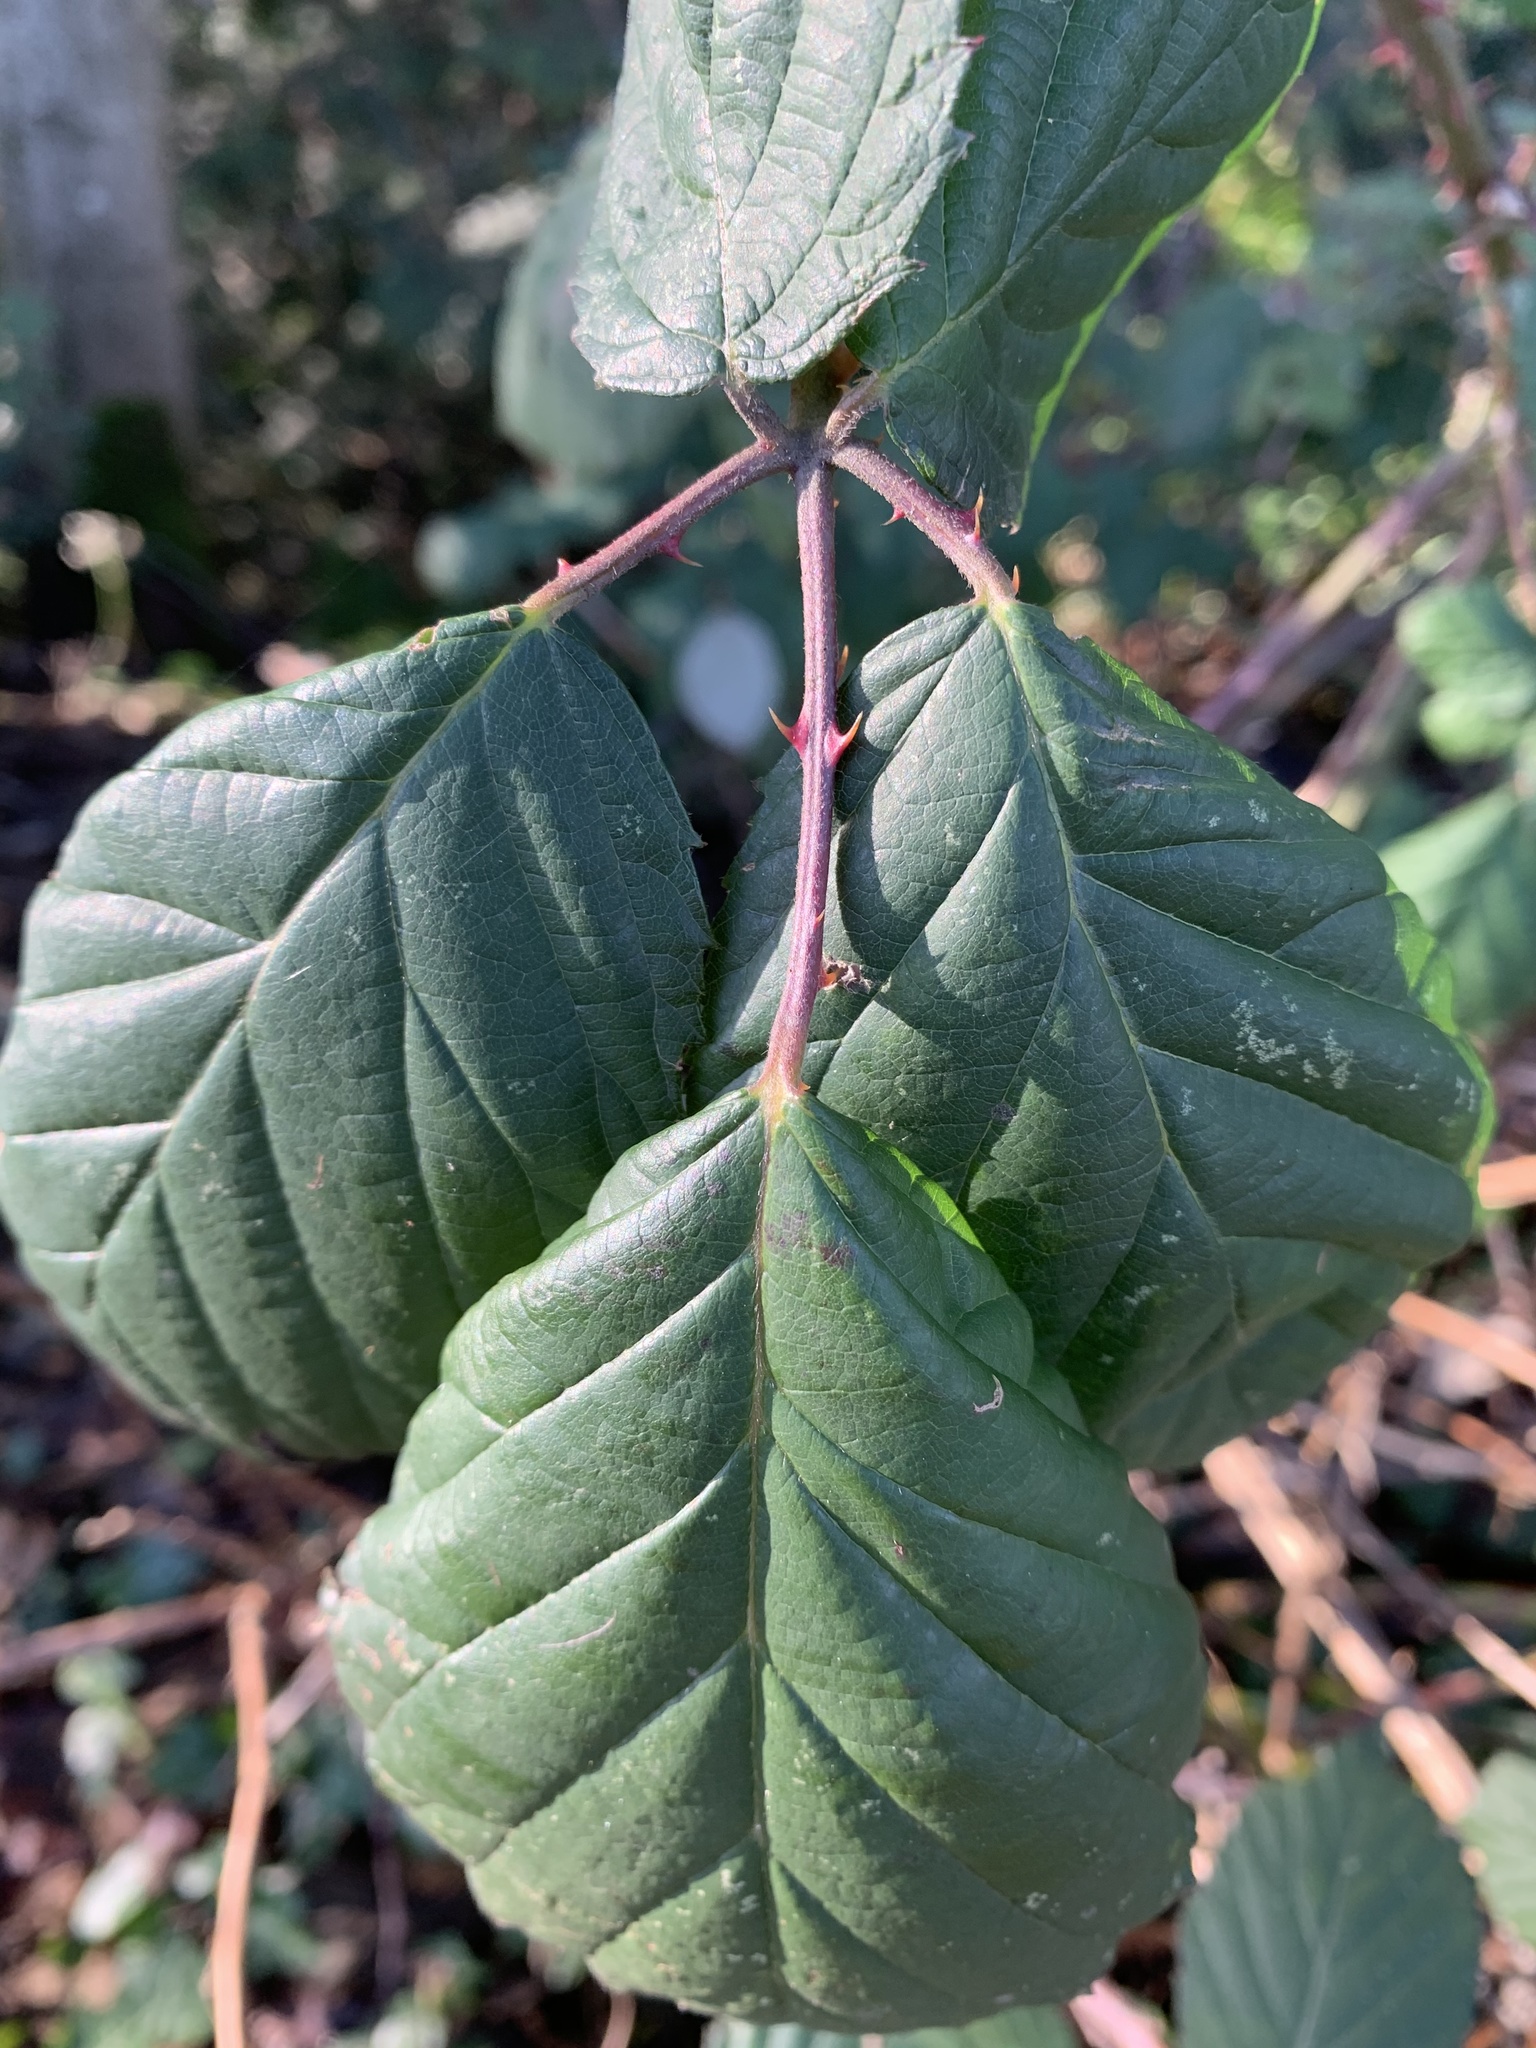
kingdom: Plantae
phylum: Tracheophyta
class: Magnoliopsida
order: Rosales
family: Rosaceae
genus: Rubus
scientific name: Rubus bifrons
